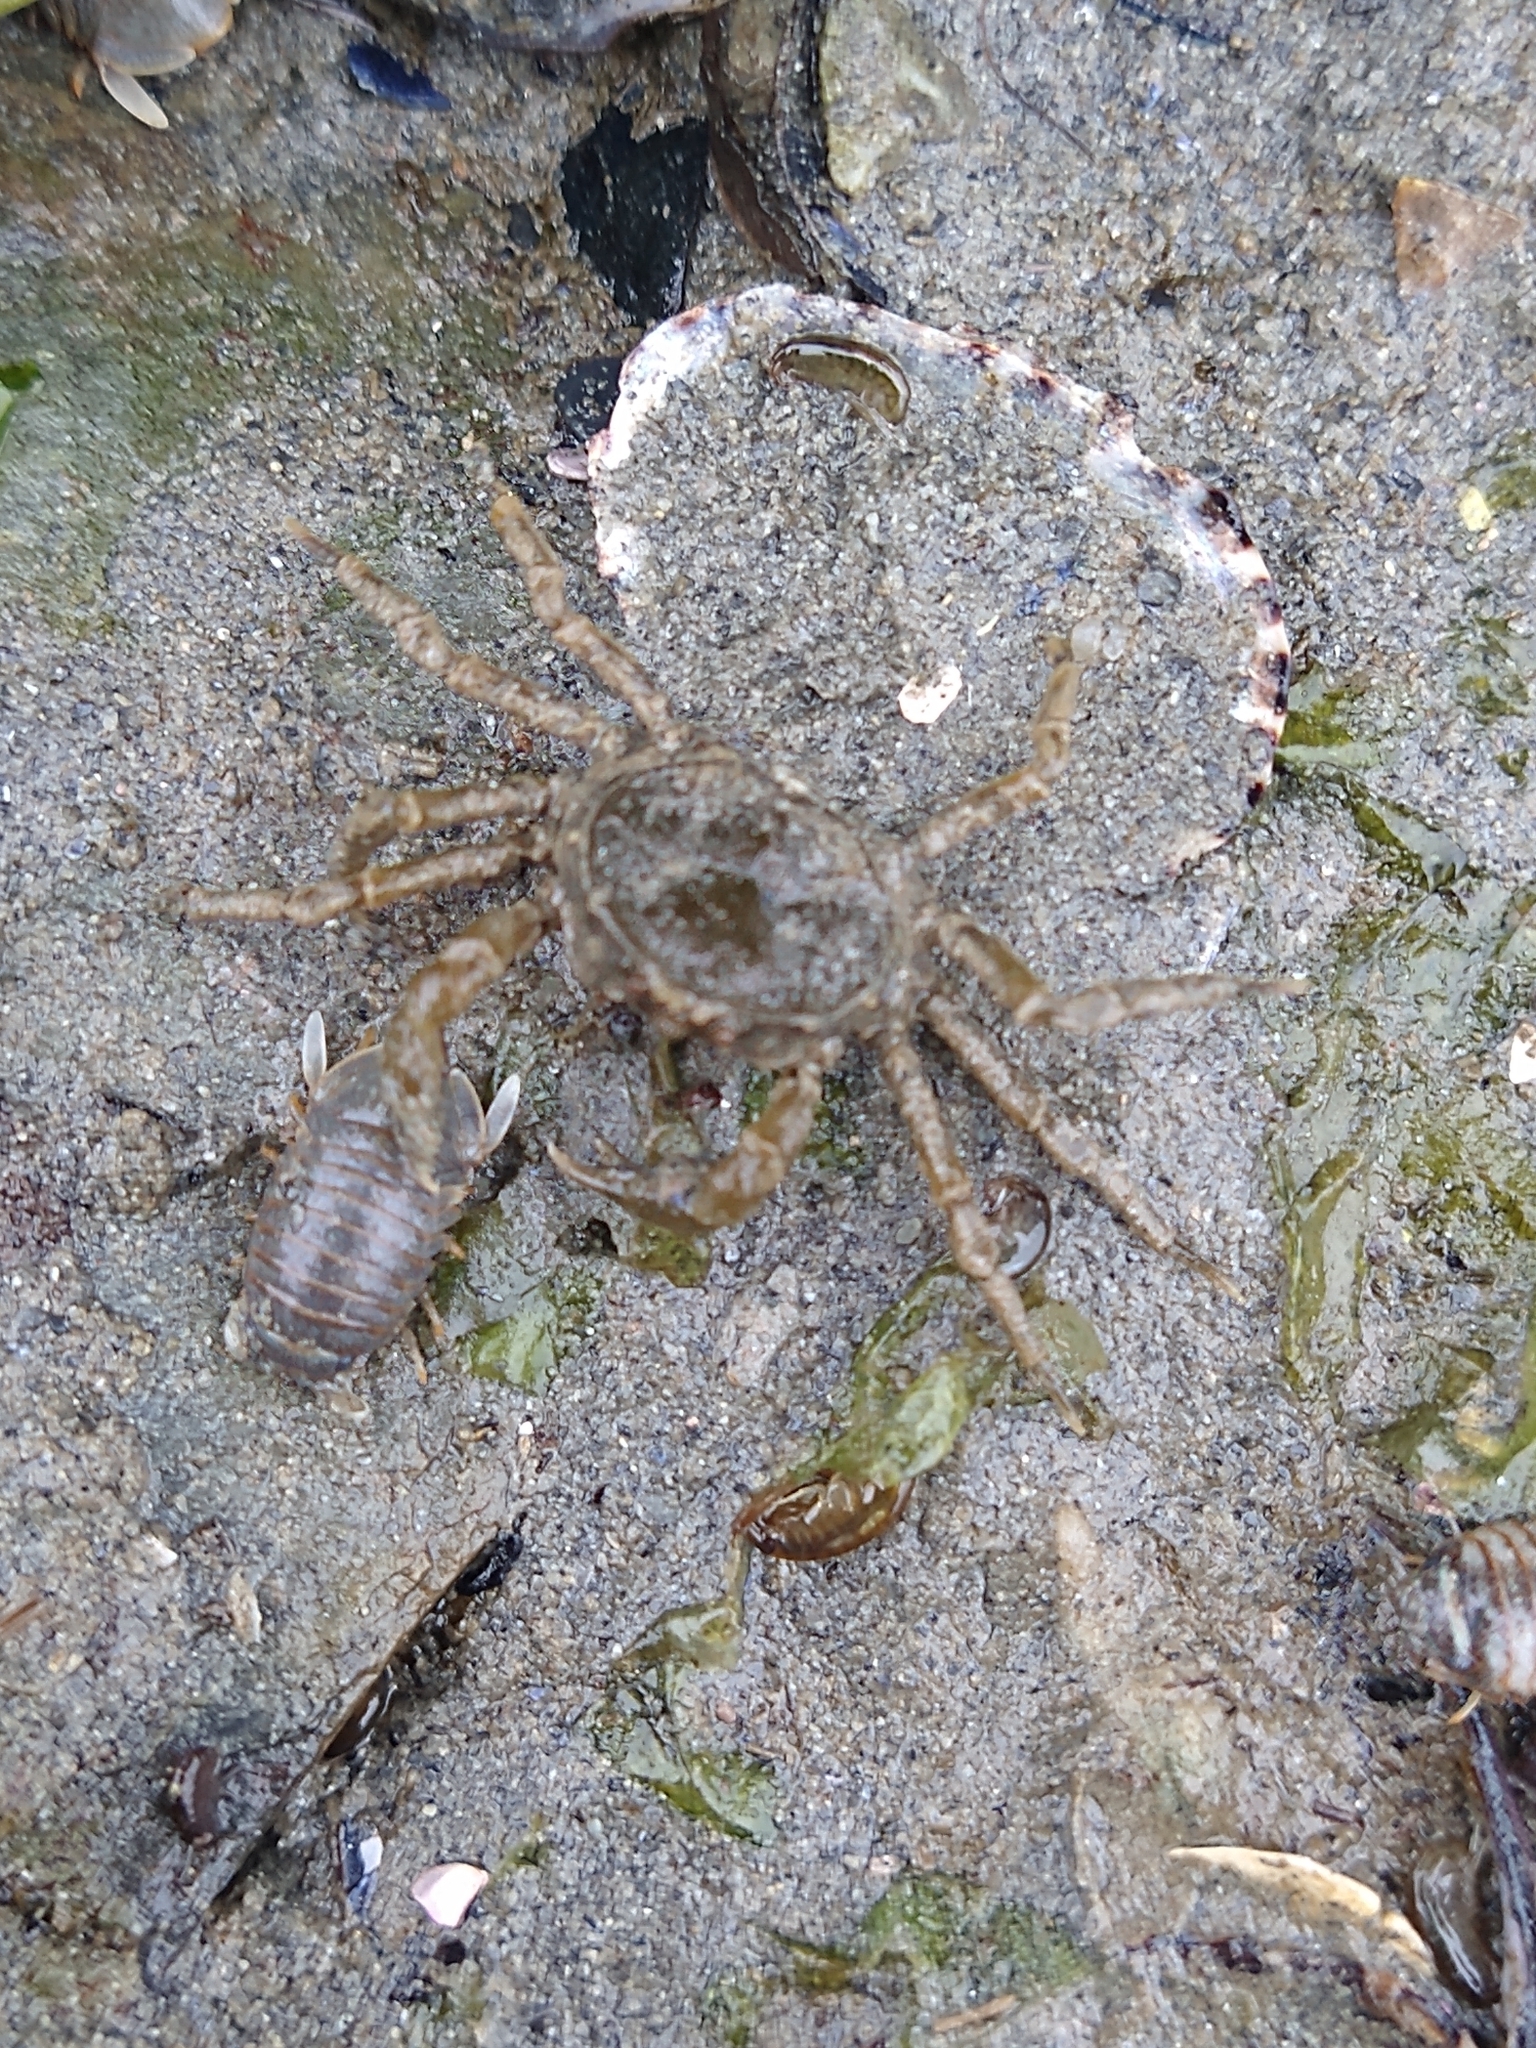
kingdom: Animalia
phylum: Arthropoda
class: Malacostraca
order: Decapoda
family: Hymenosomatidae
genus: Halicarcinus
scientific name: Halicarcinus planatus
